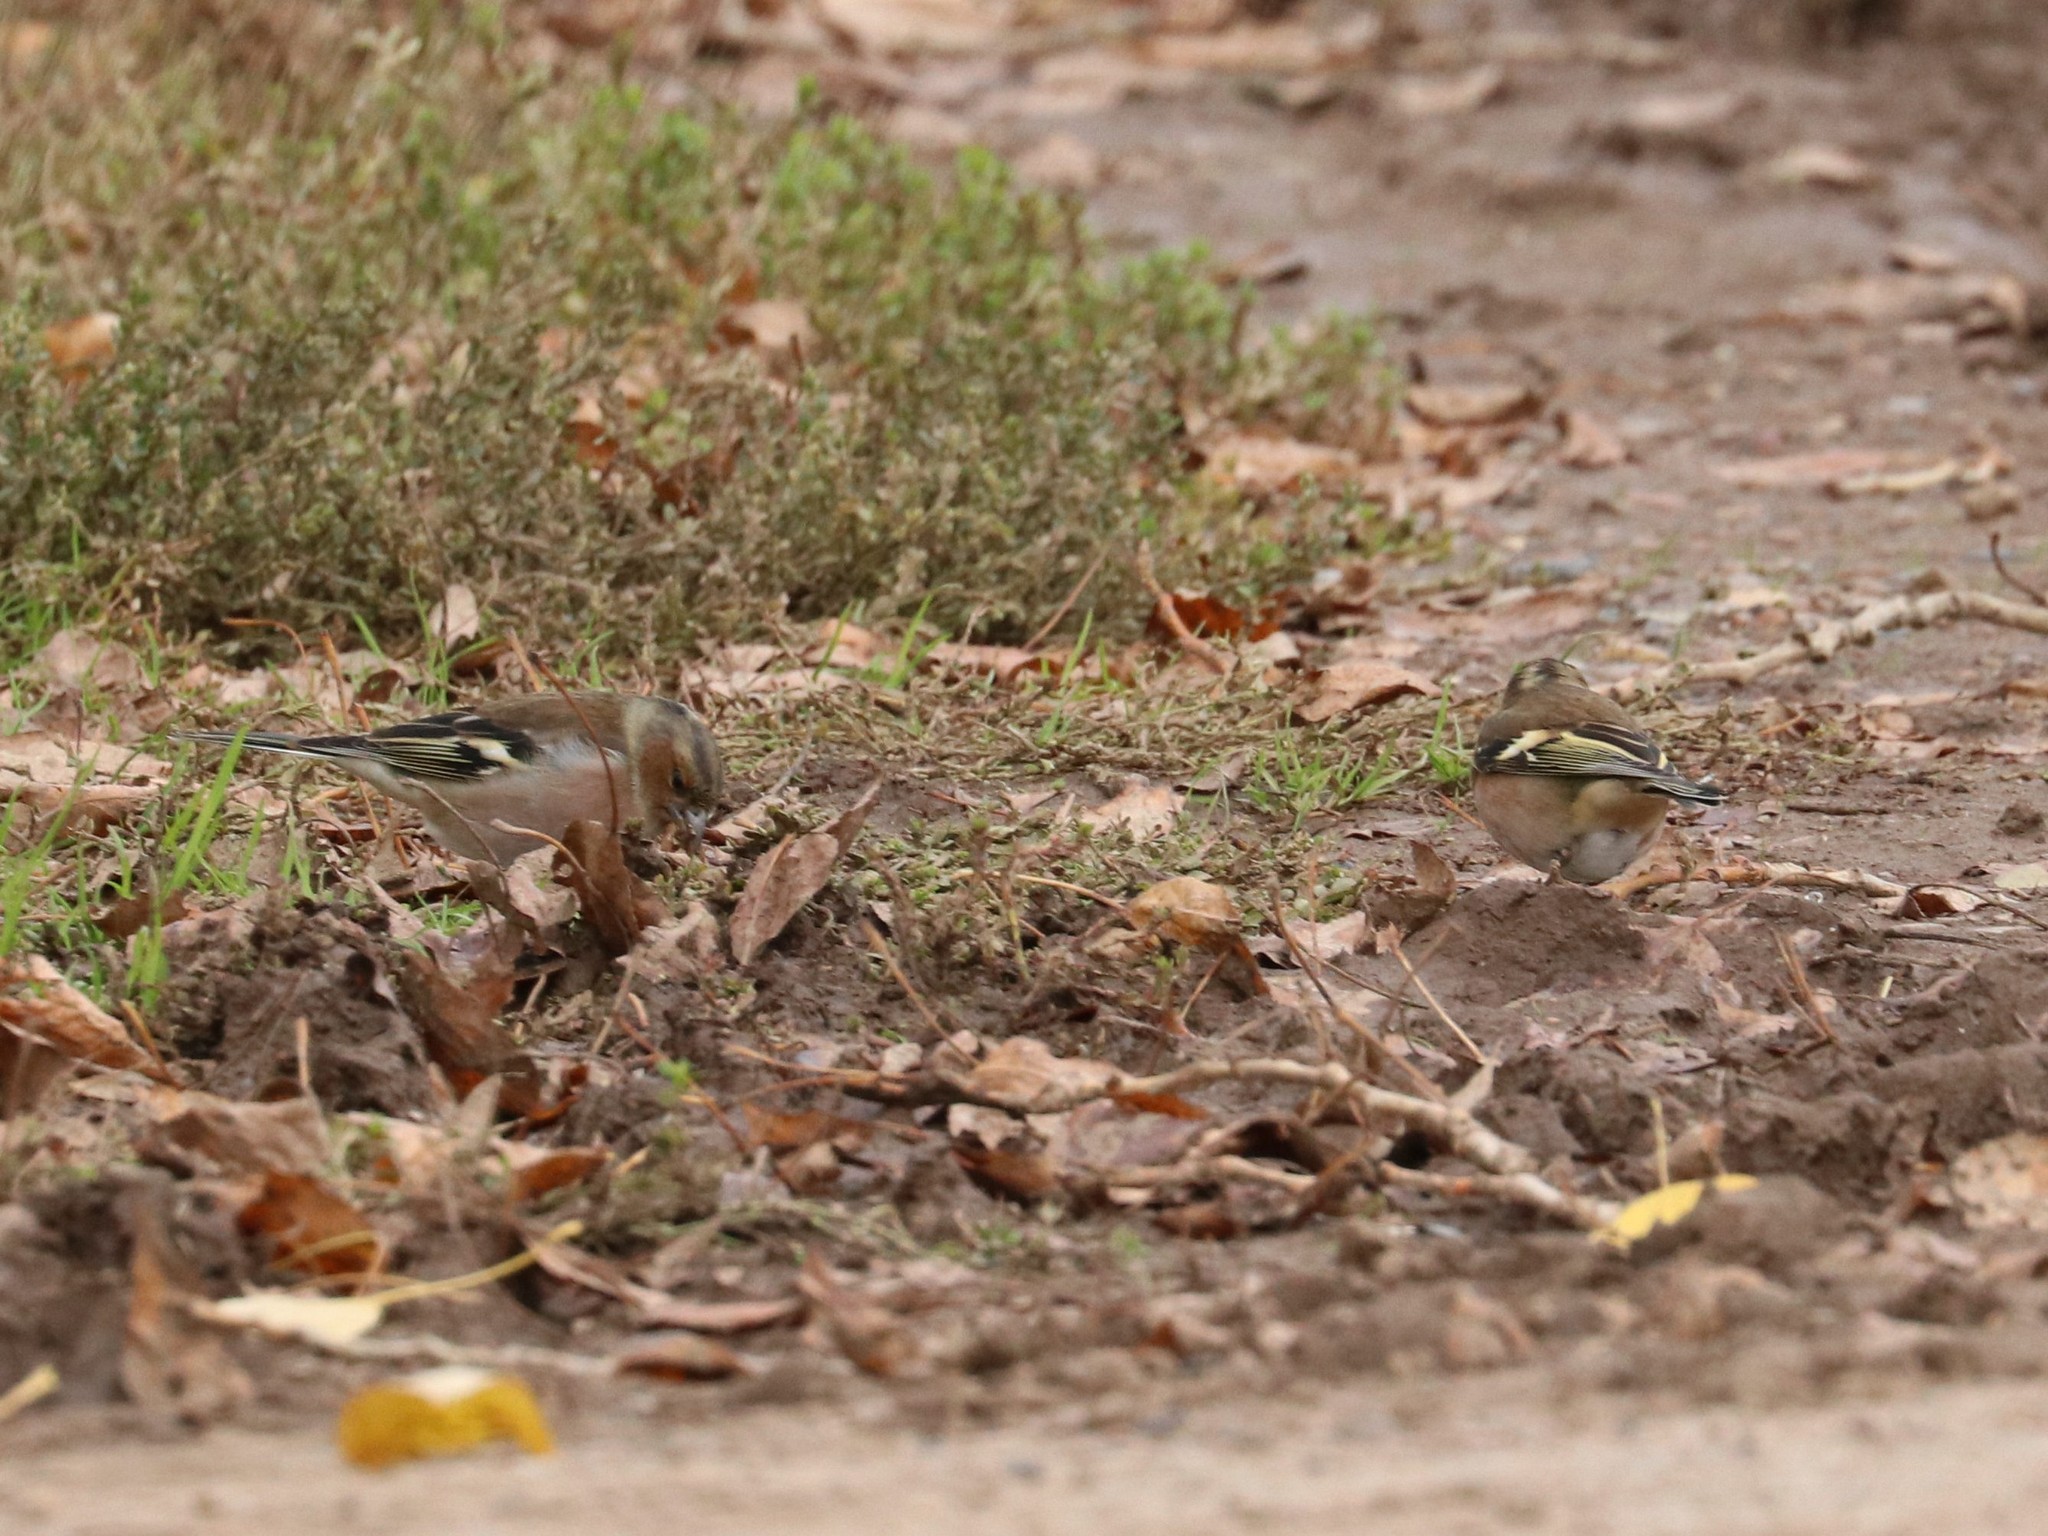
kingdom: Animalia
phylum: Chordata
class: Aves
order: Passeriformes
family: Fringillidae
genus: Fringilla
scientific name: Fringilla coelebs
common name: Common chaffinch
